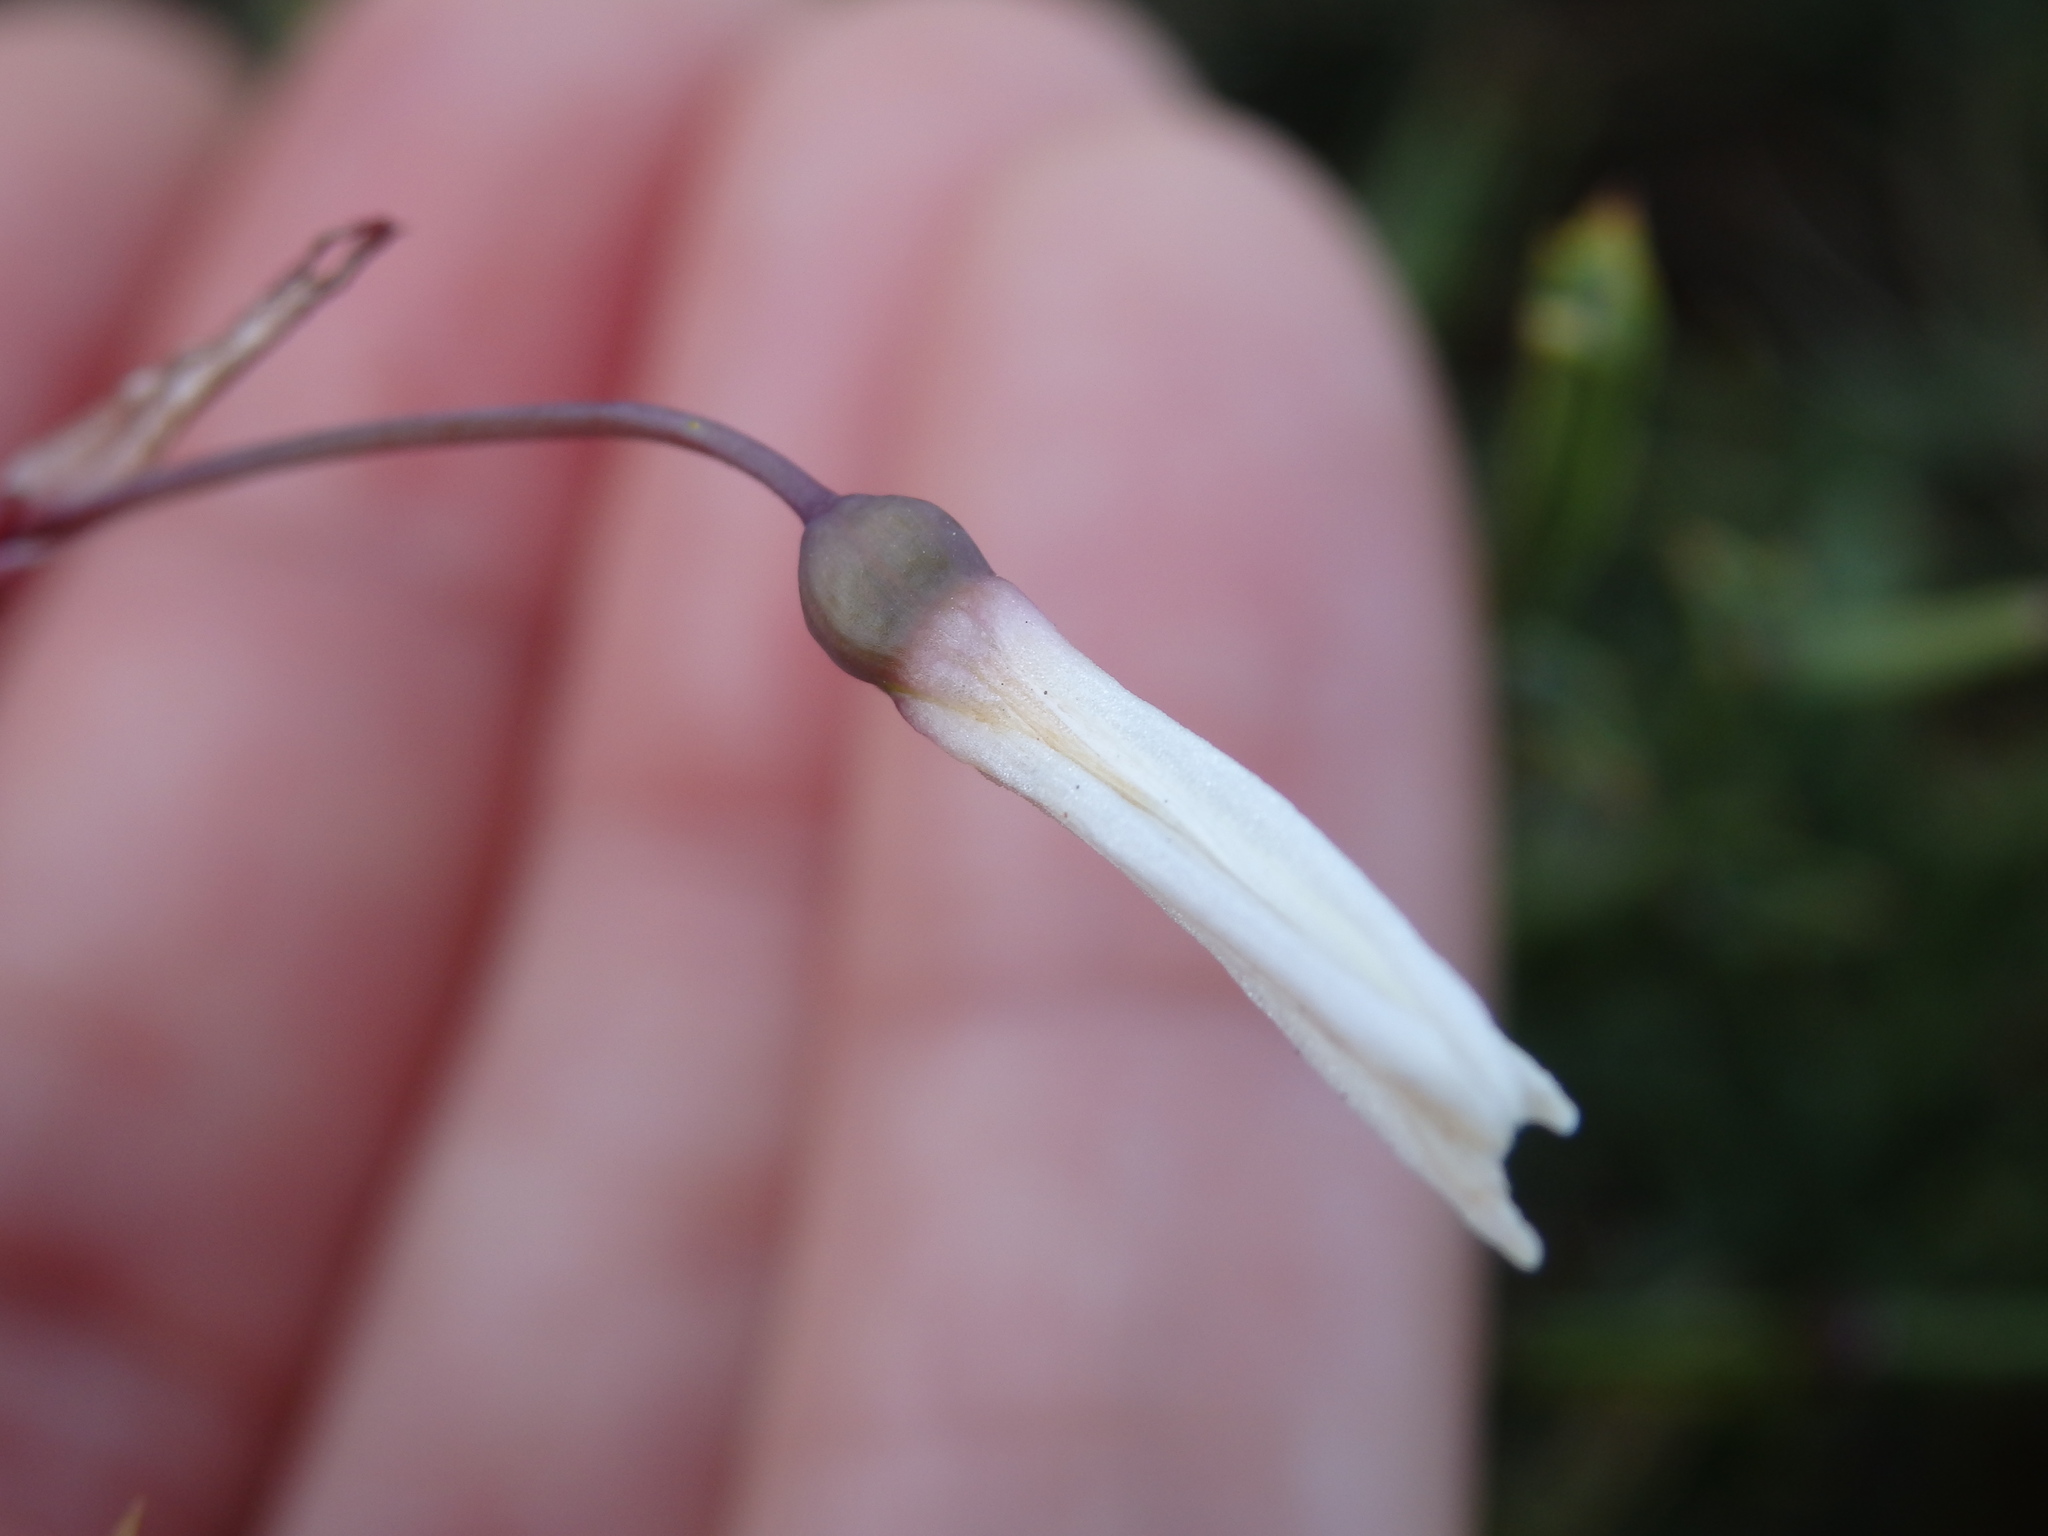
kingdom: Plantae
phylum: Tracheophyta
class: Liliopsida
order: Asparagales
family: Amaryllidaceae
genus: Acis
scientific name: Acis autumnalis
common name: Autumn snowflake
